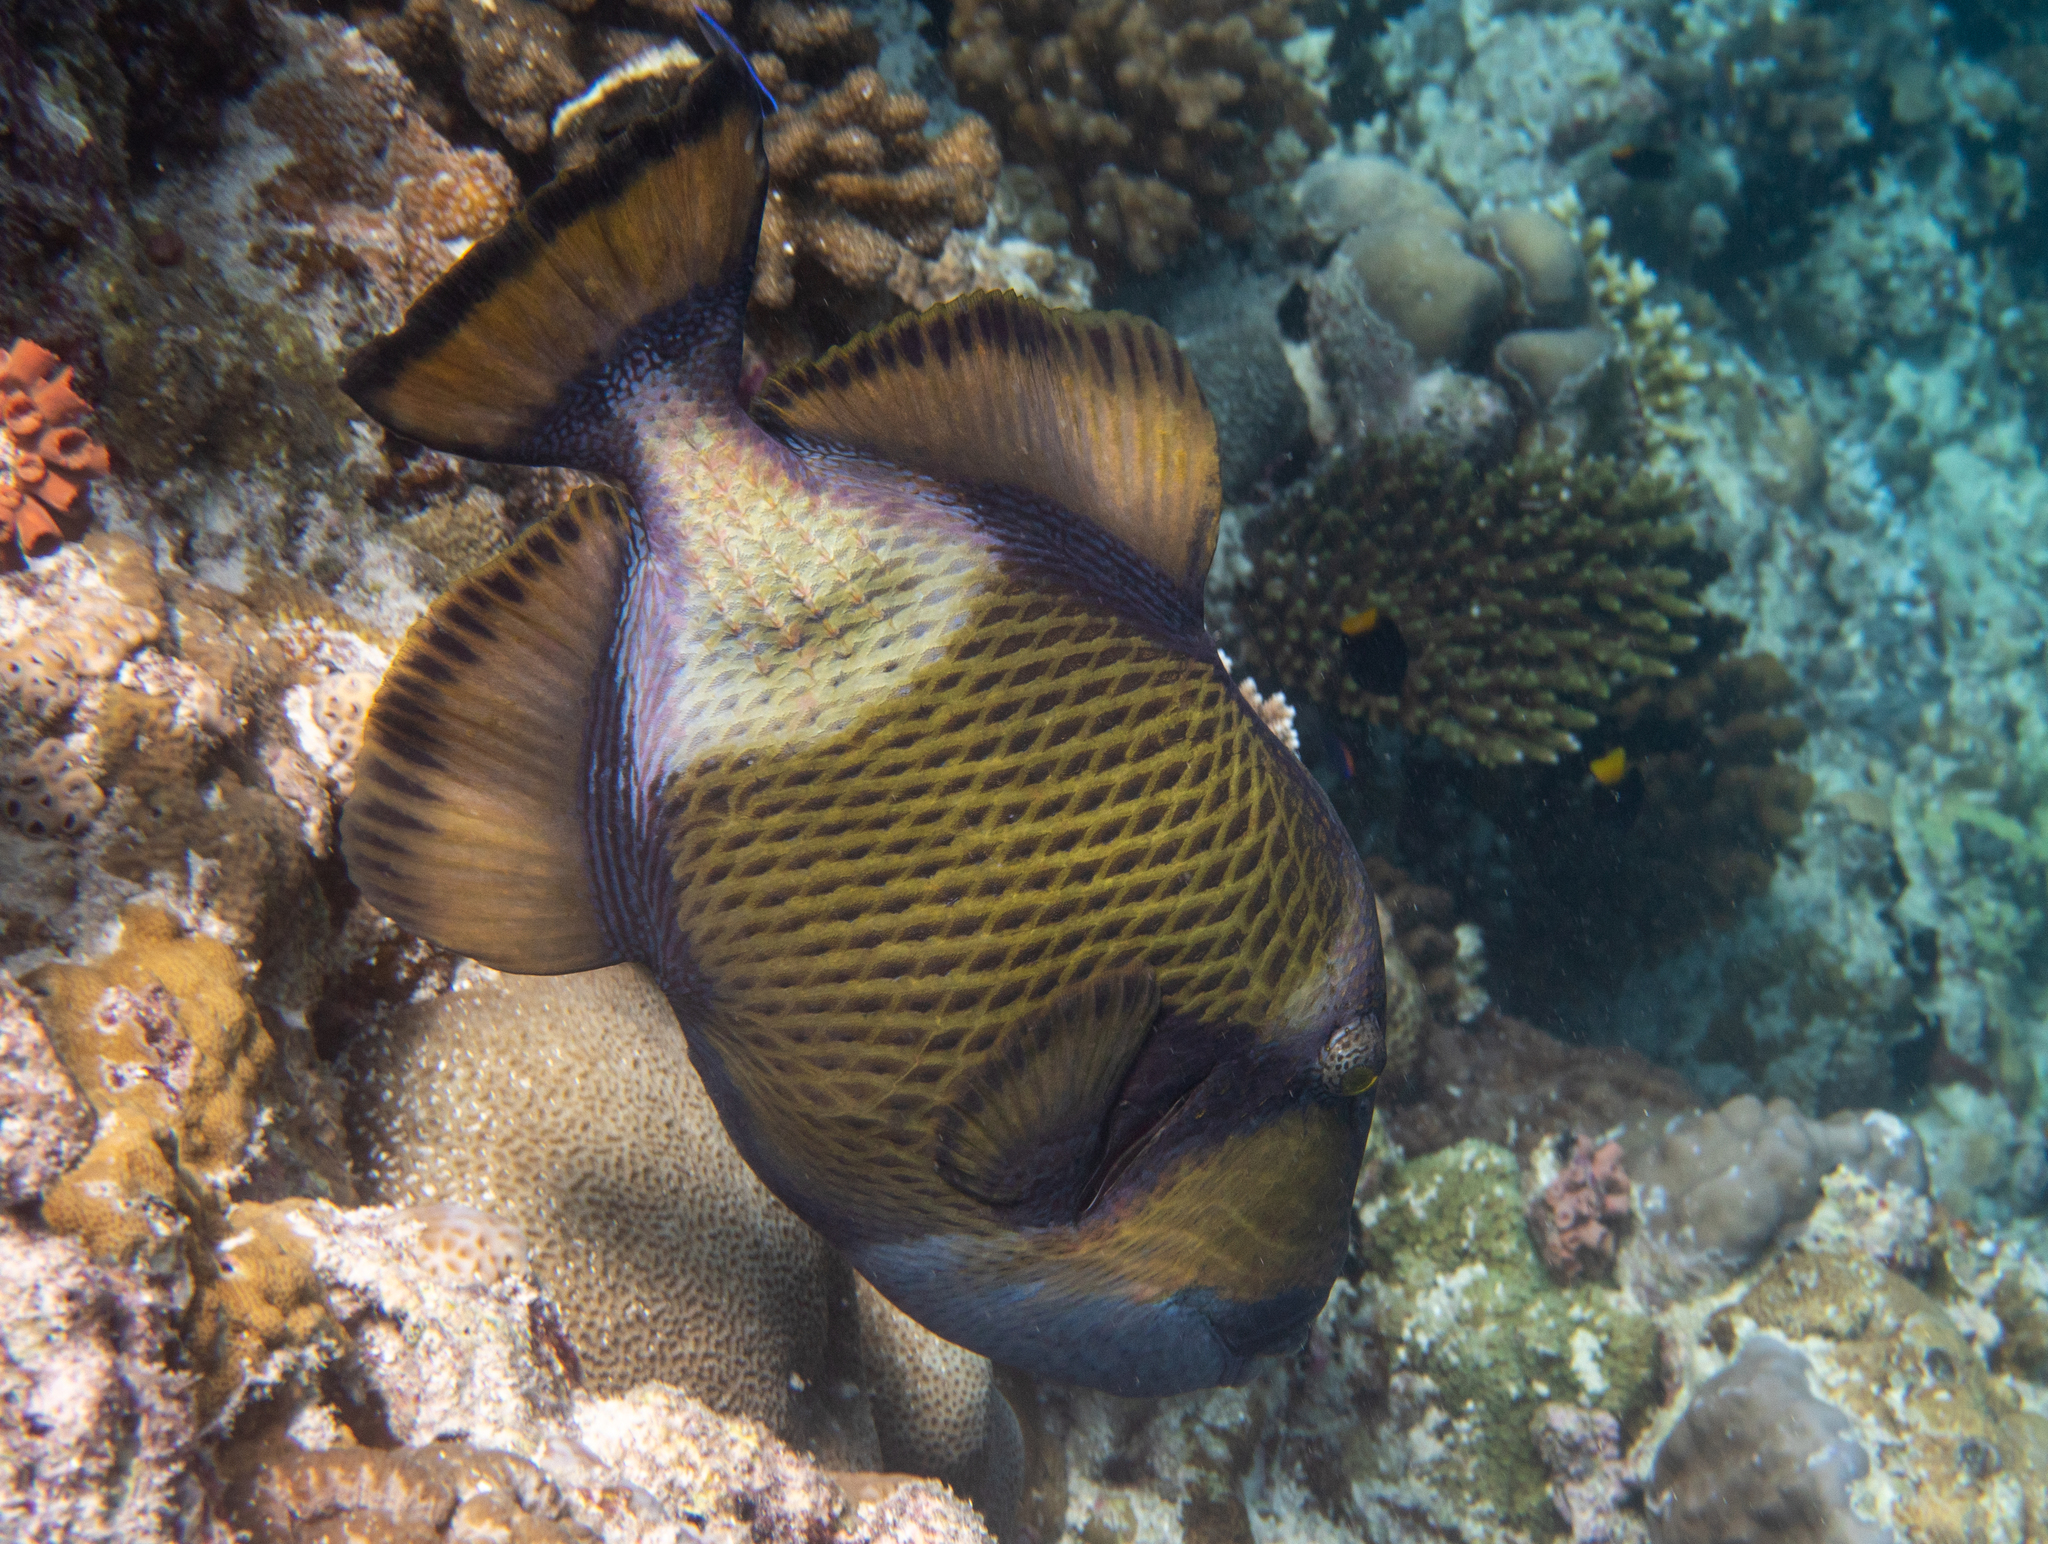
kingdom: Animalia
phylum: Chordata
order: Tetraodontiformes
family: Balistidae
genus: Balistoides
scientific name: Balistoides viridescens
